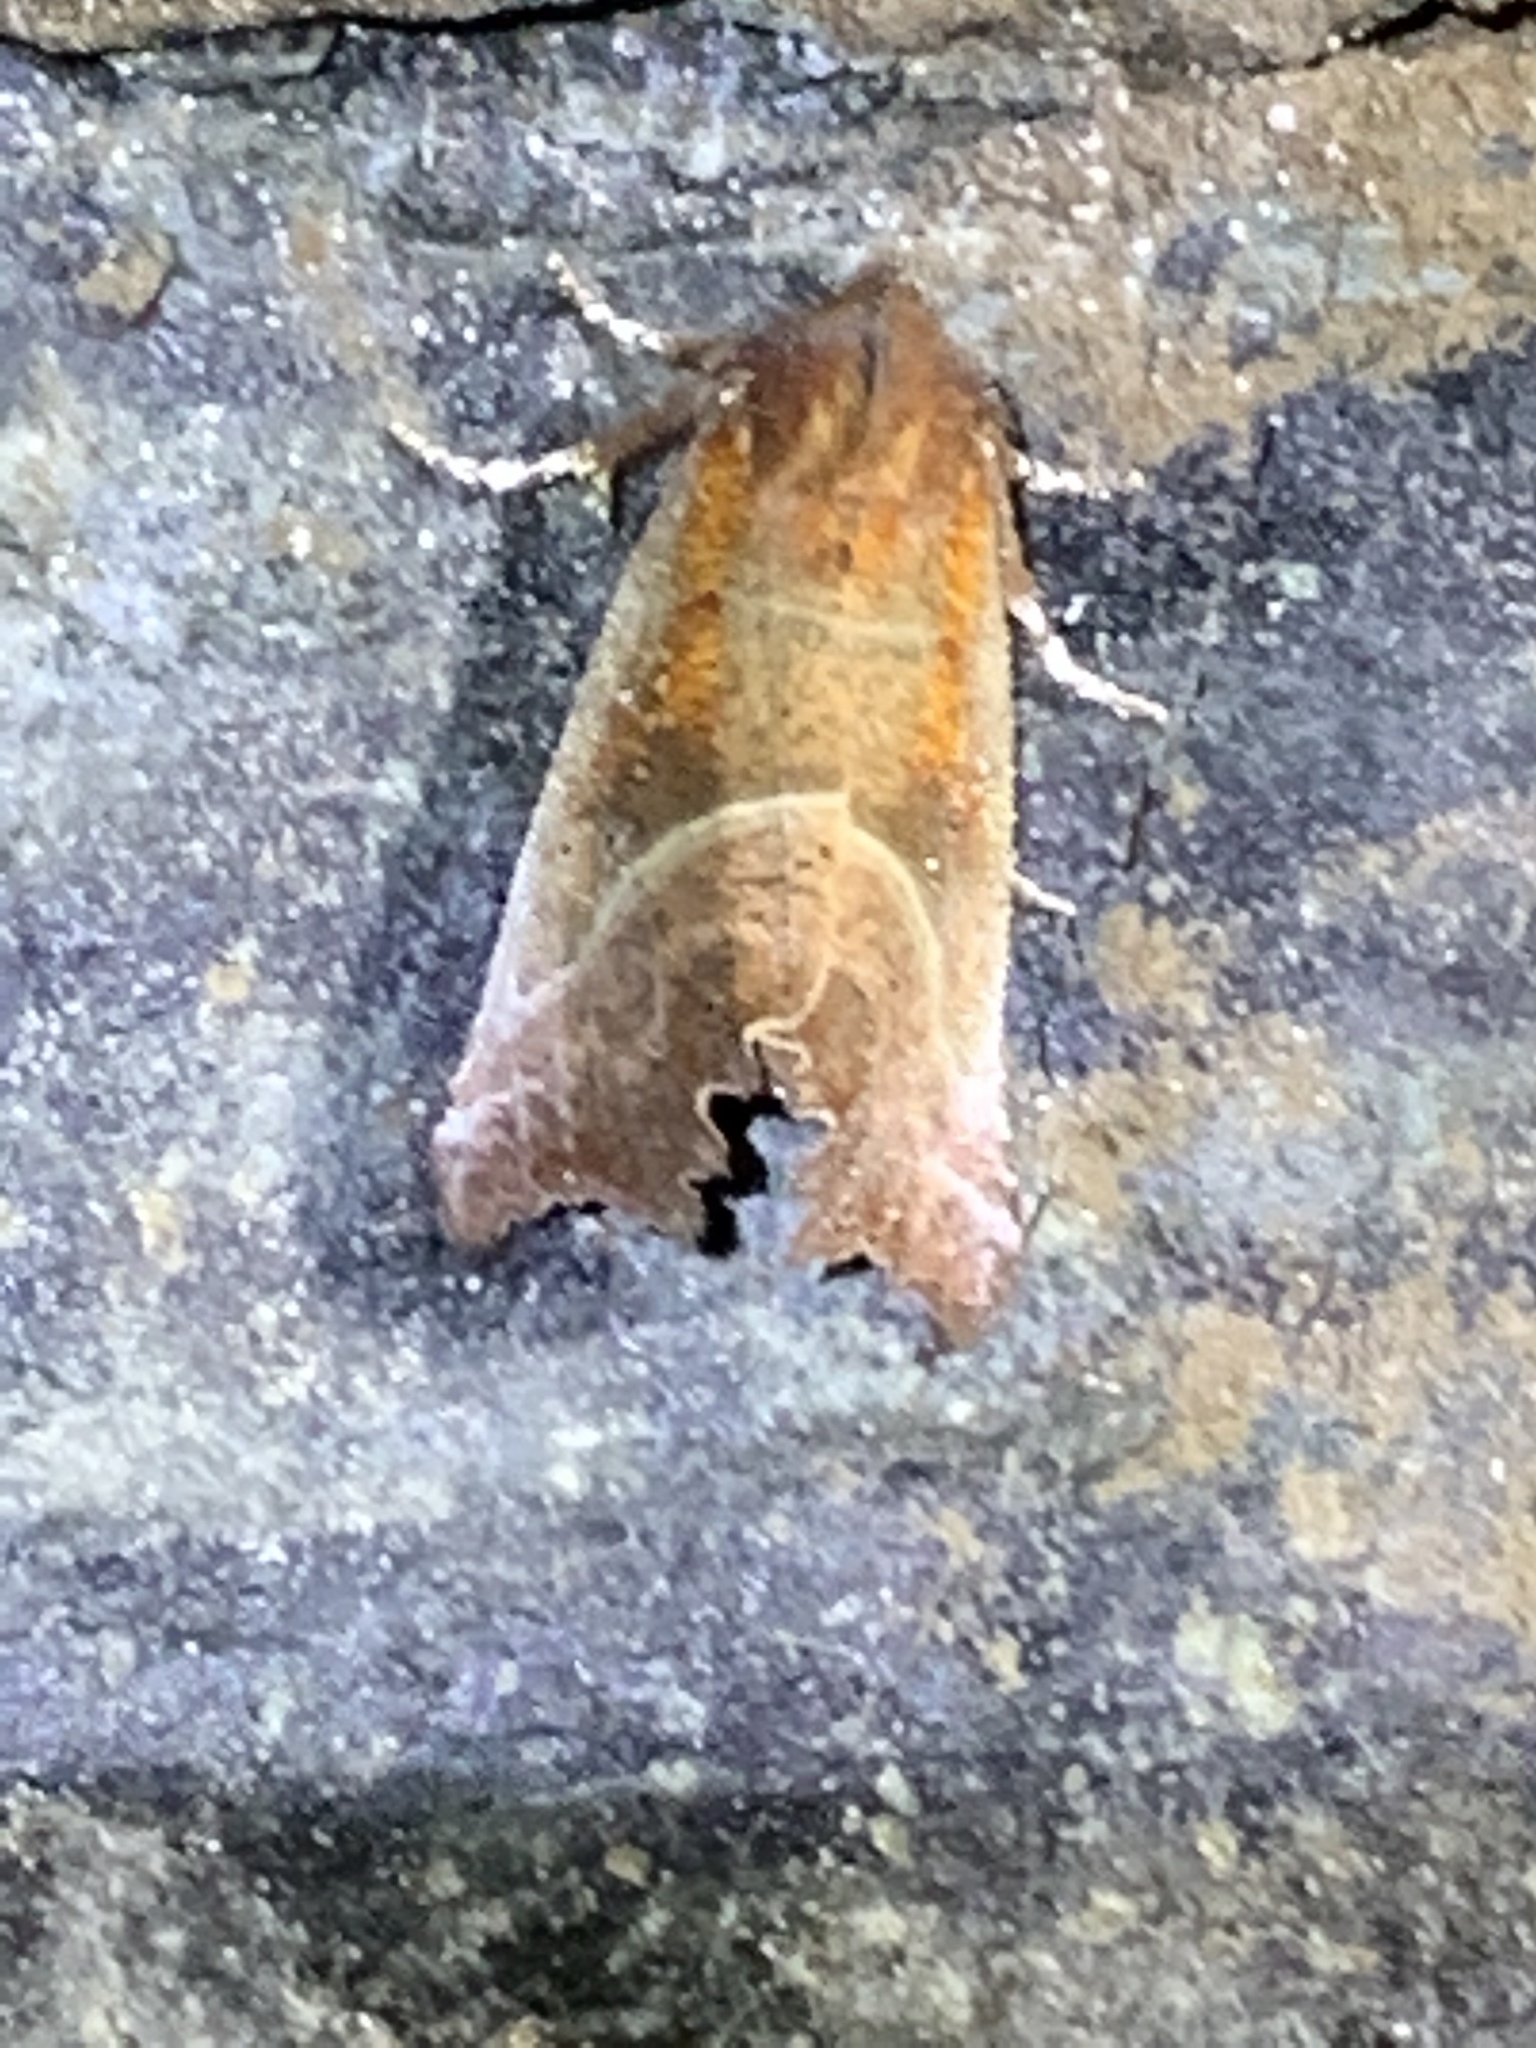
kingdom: Animalia
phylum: Arthropoda
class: Insecta
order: Lepidoptera
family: Erebidae
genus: Scoliopteryx
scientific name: Scoliopteryx libatrix
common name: Herald
